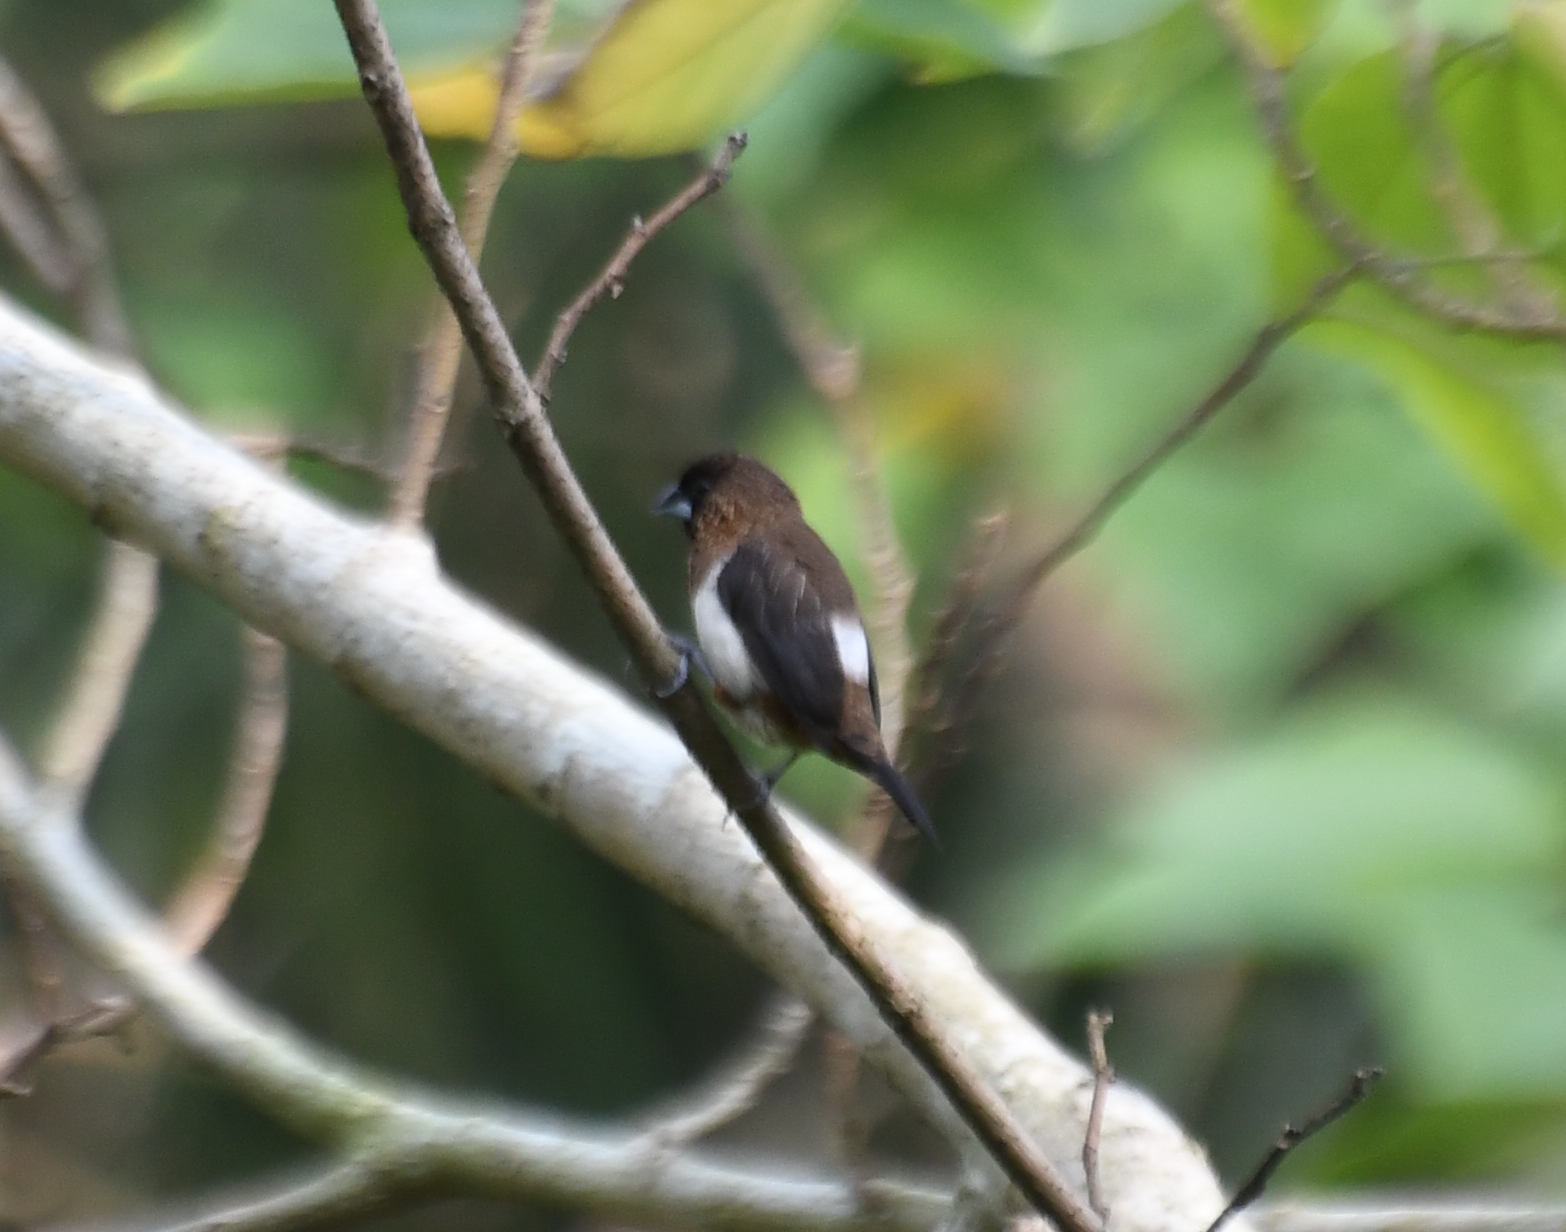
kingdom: Animalia
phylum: Chordata
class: Aves
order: Passeriformes
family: Estrildidae
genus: Lonchura
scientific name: Lonchura striata
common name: White-rumped munia
